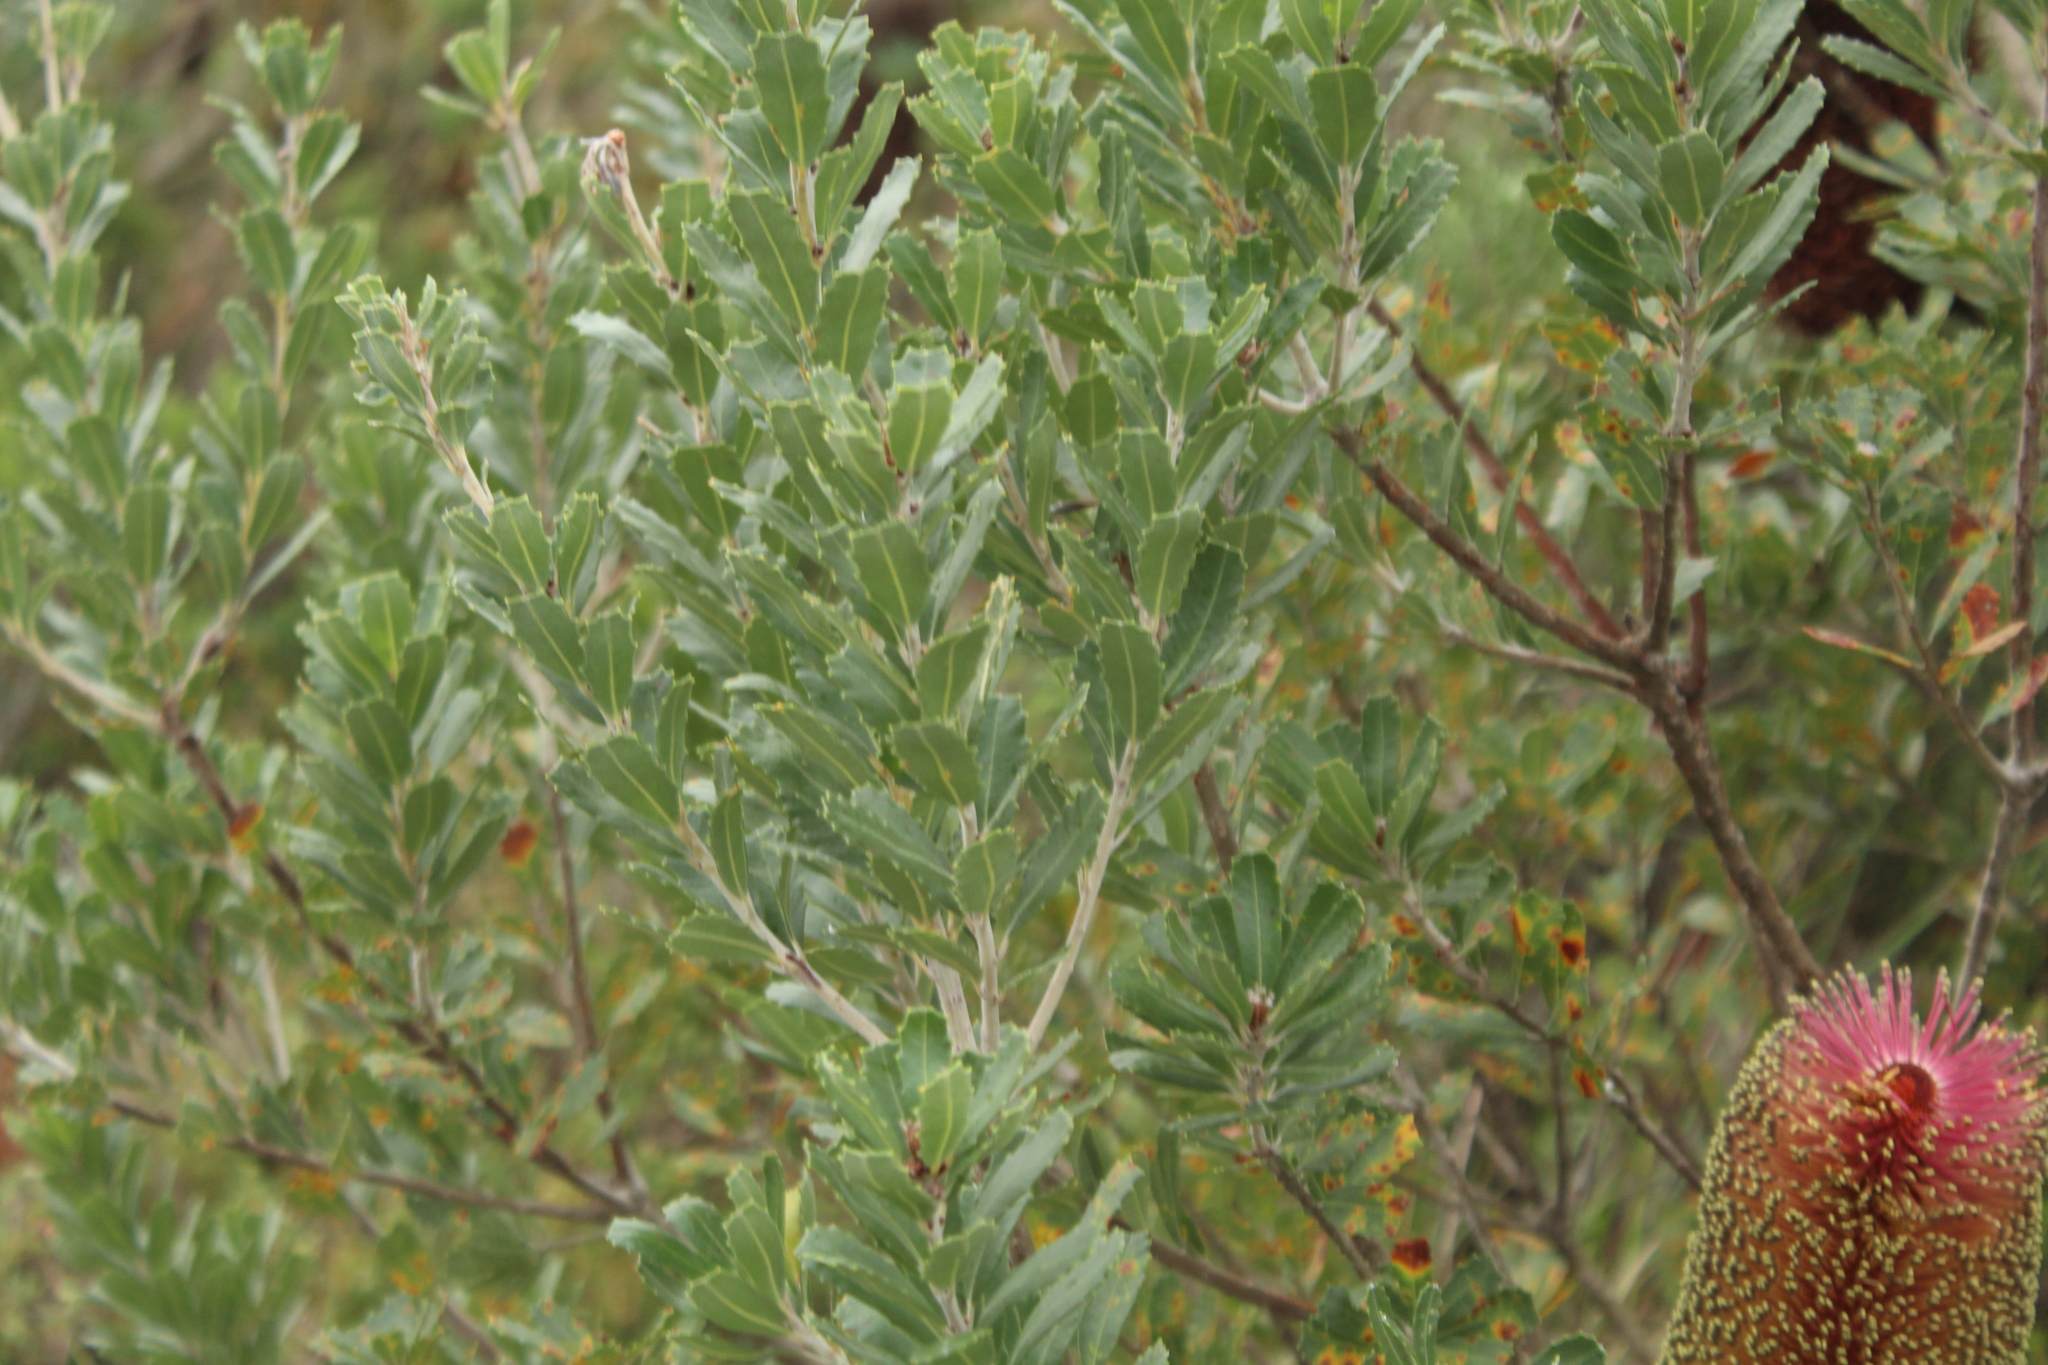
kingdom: Plantae
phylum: Tracheophyta
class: Magnoliopsida
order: Proteales
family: Proteaceae
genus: Banksia
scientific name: Banksia praemorsa
